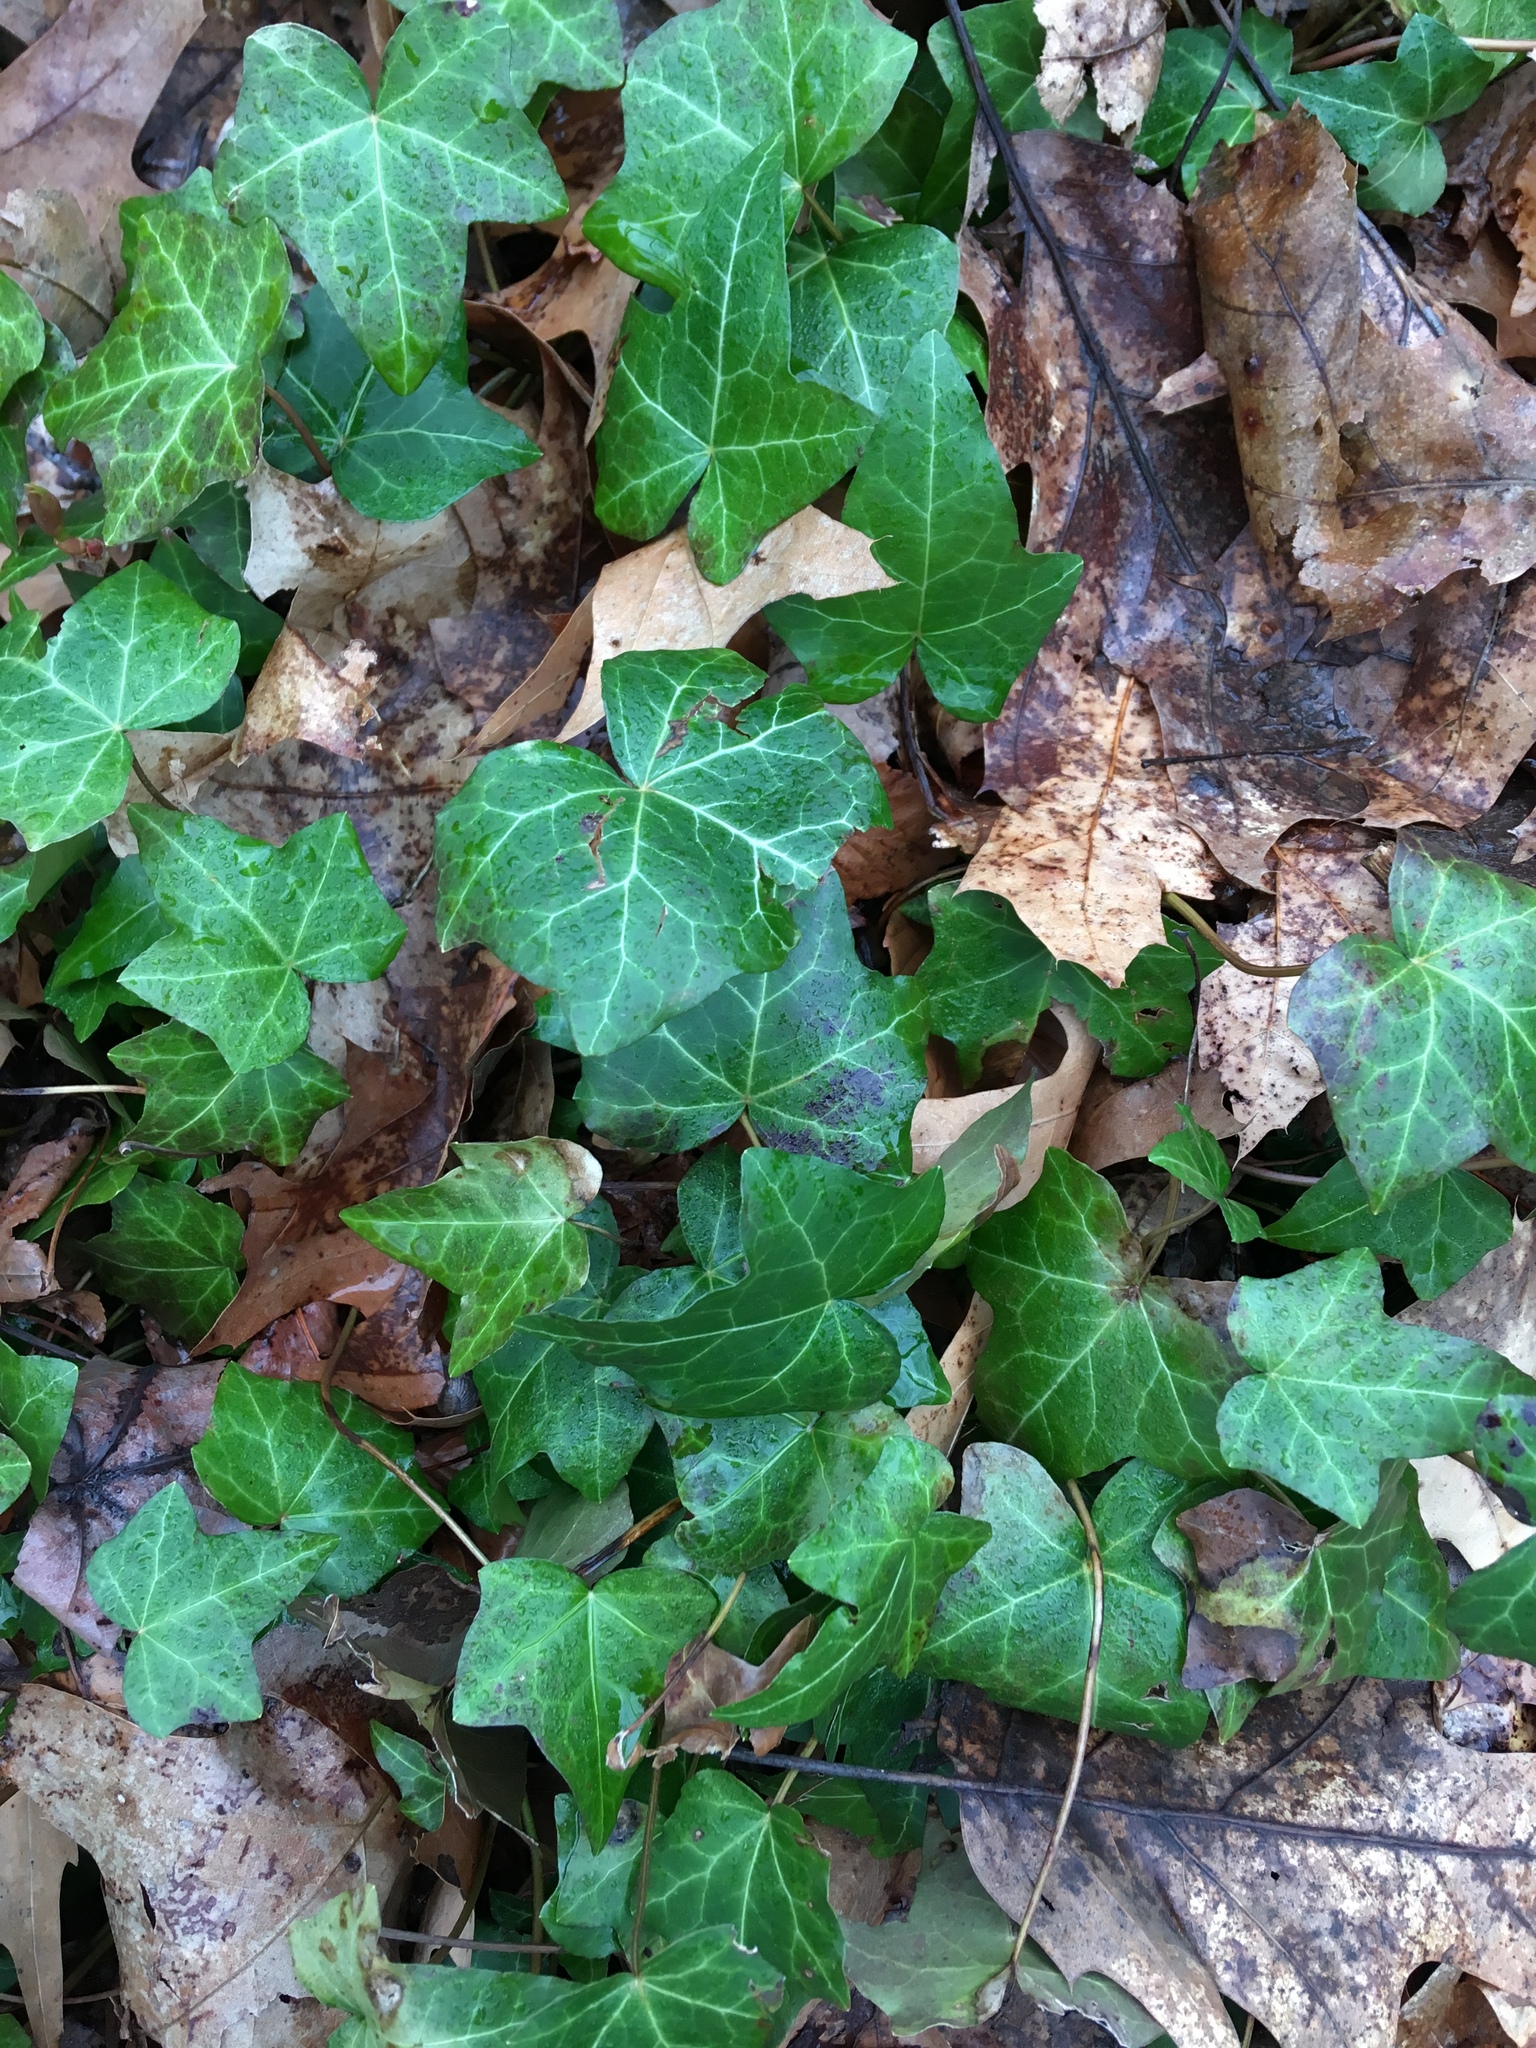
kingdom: Plantae
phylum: Tracheophyta
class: Magnoliopsida
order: Apiales
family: Araliaceae
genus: Hedera
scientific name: Hedera helix
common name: Ivy
